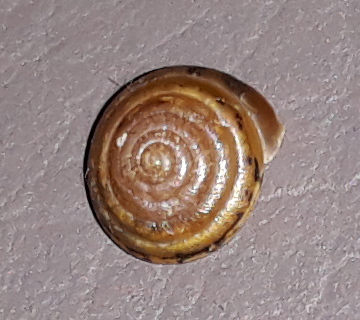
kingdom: Animalia
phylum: Mollusca
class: Gastropoda
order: Stylommatophora
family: Hygromiidae
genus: Perforatella
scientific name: Perforatella bidentata
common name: Double-tooth hairy snail
